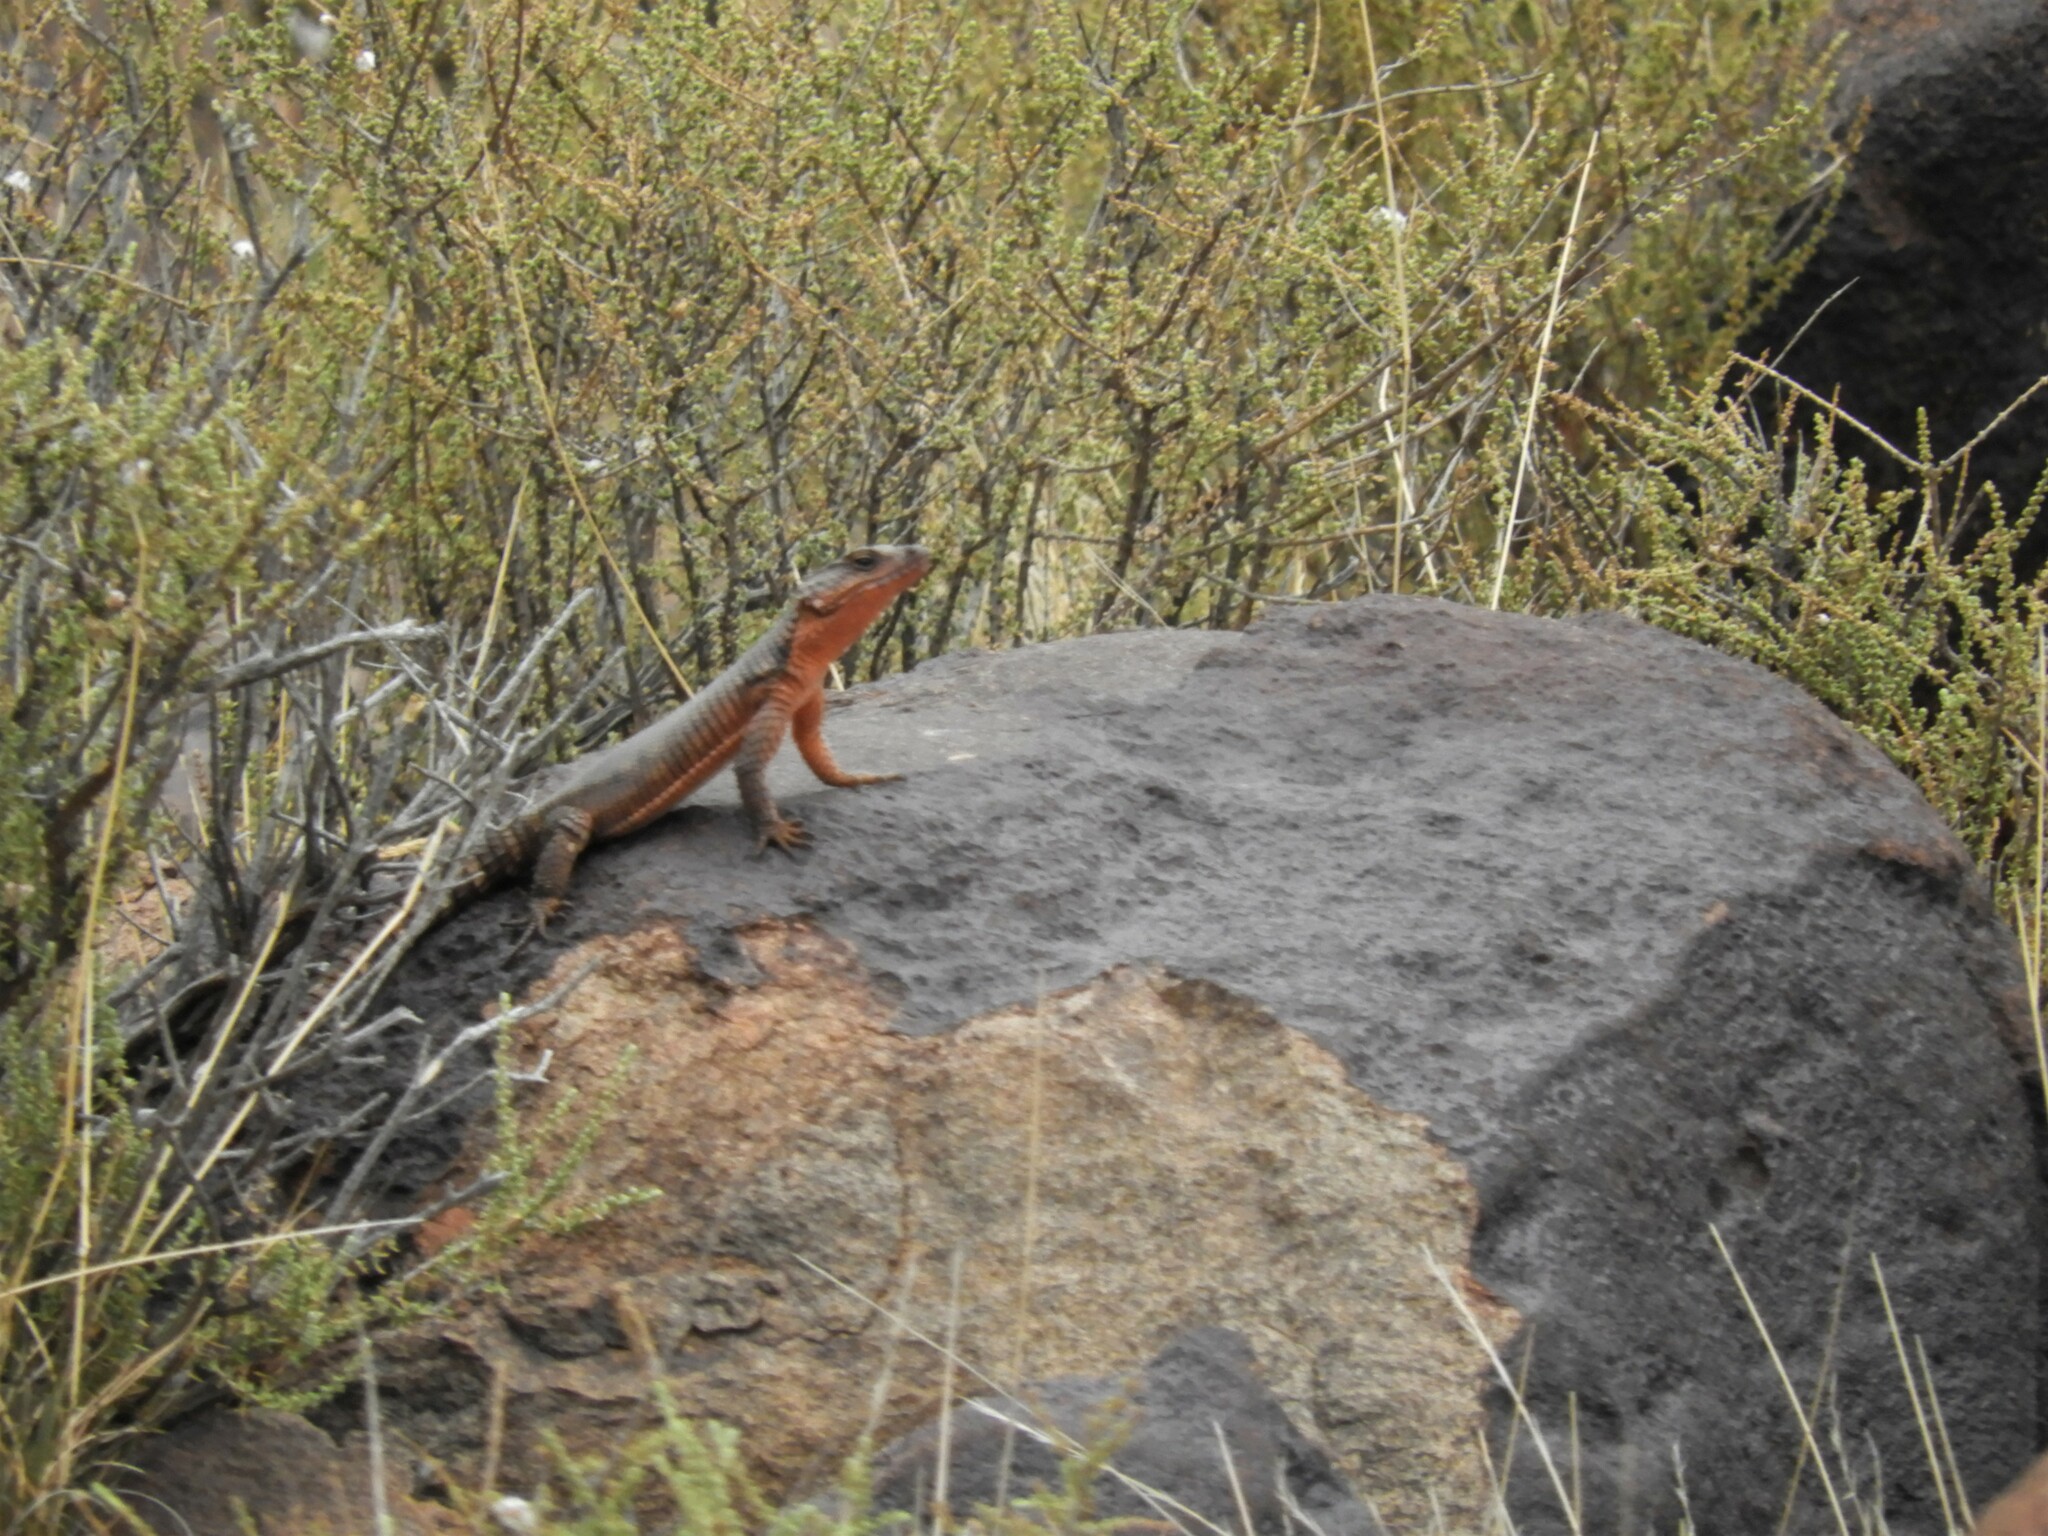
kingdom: Animalia
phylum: Chordata
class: Squamata
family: Cordylidae
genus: Karusasaurus
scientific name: Karusasaurus polyzonus
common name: Karoo girdled lizard
